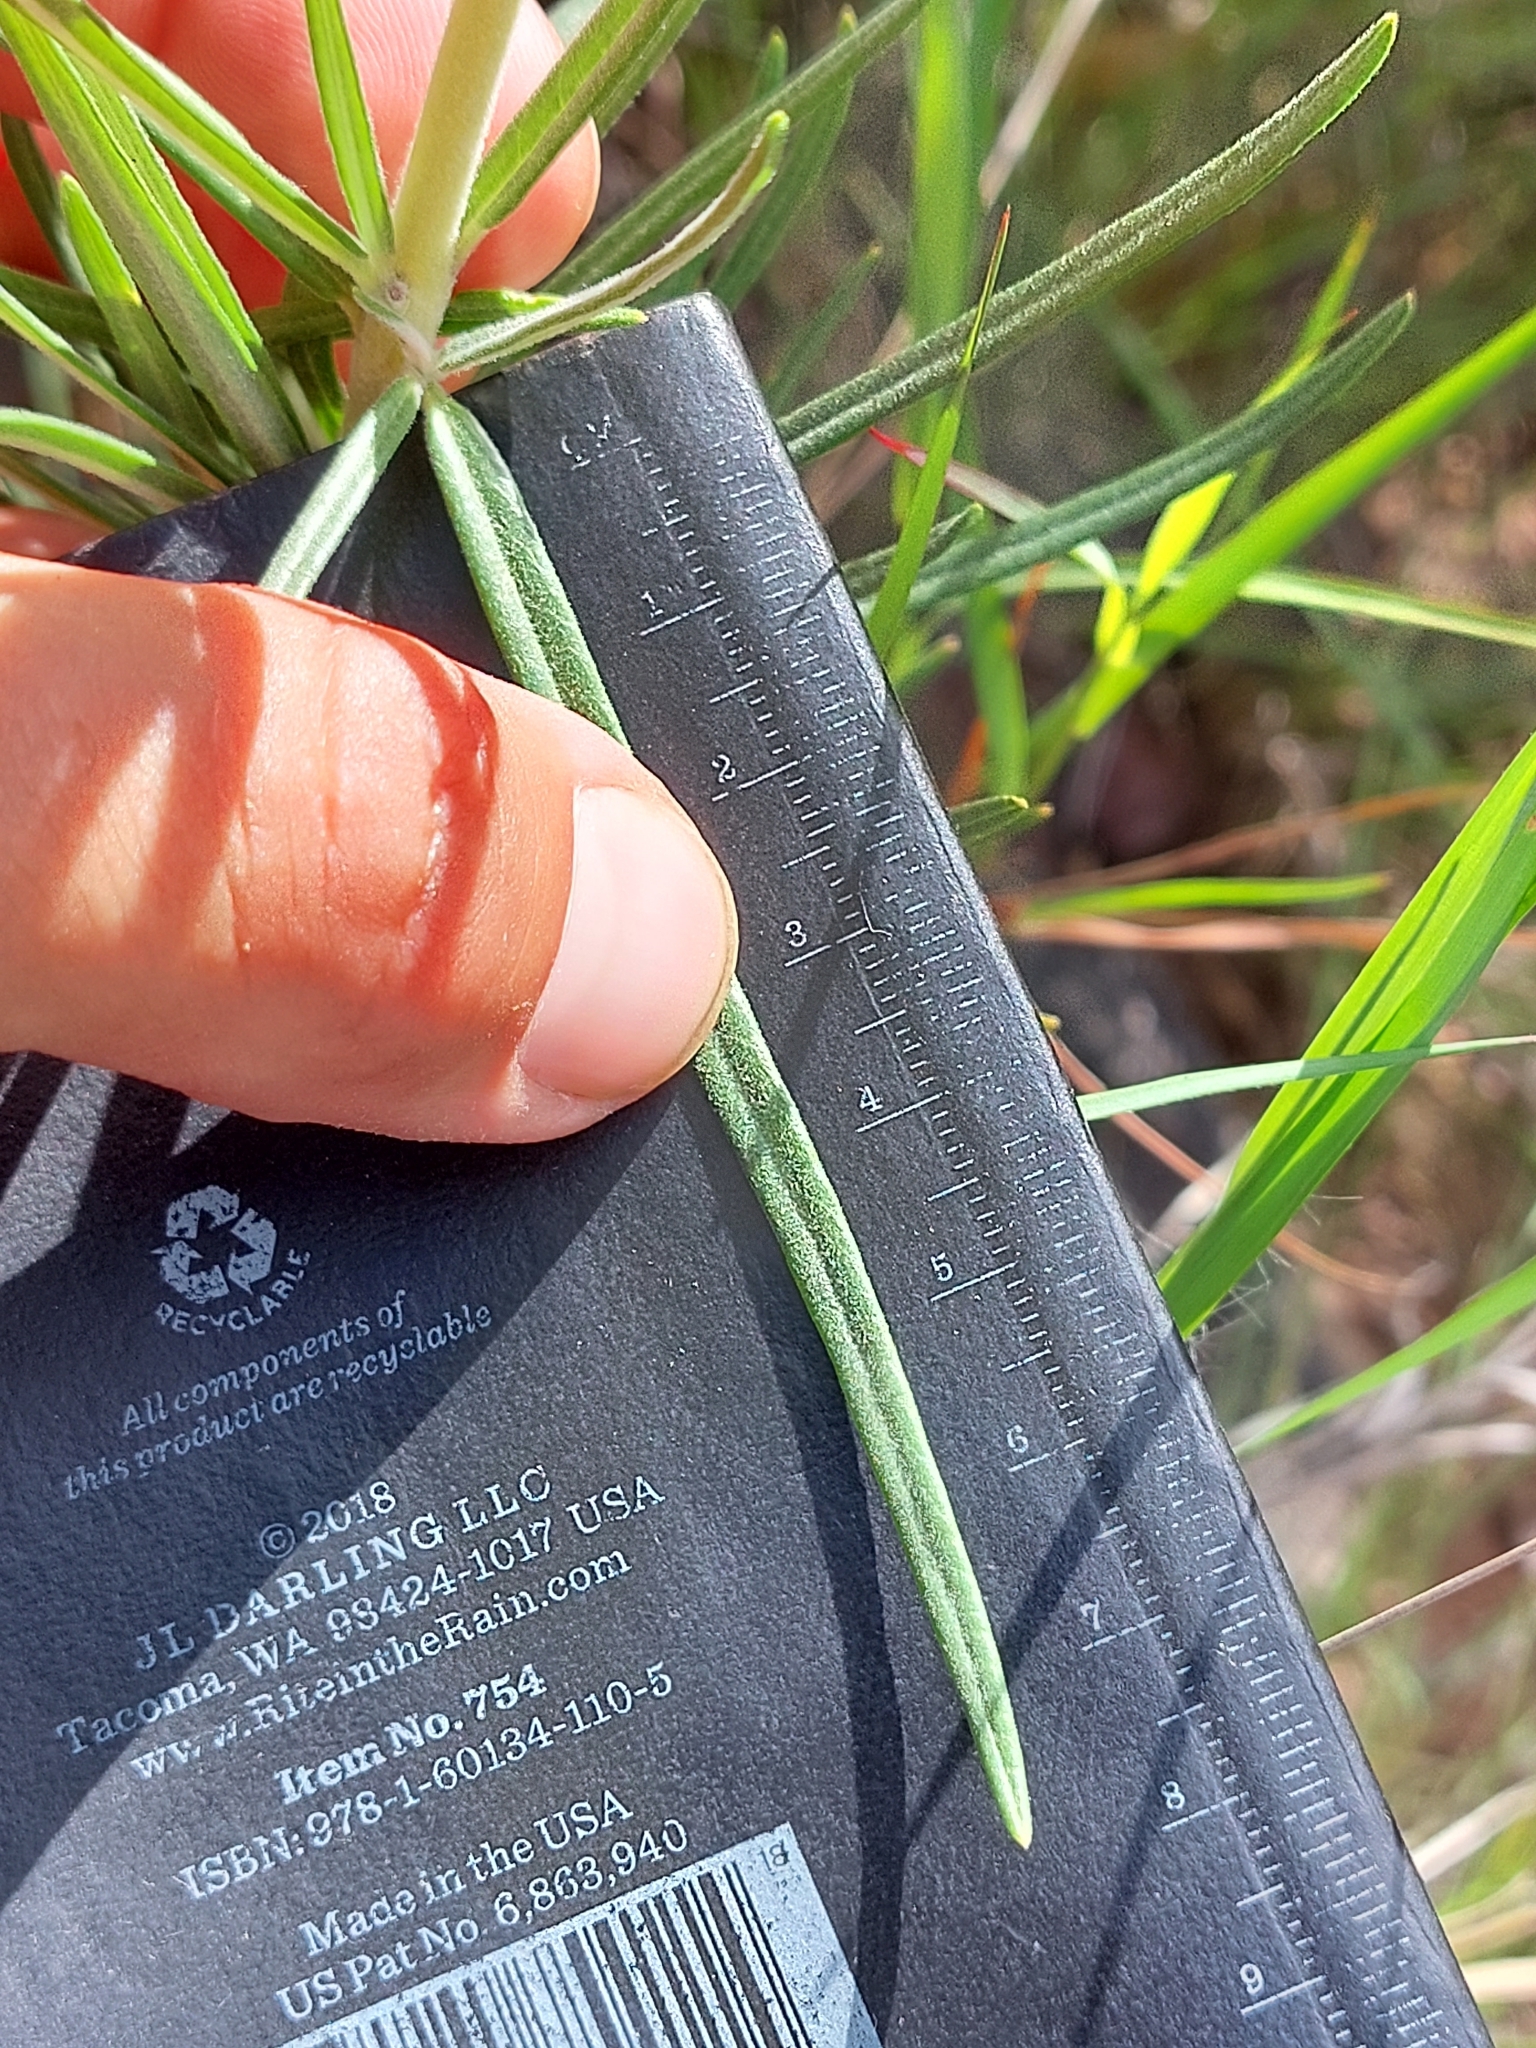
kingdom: Plantae
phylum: Tracheophyta
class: Magnoliopsida
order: Gentianales
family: Apocynaceae
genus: Gomphocarpus
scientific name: Gomphocarpus tomentosus
